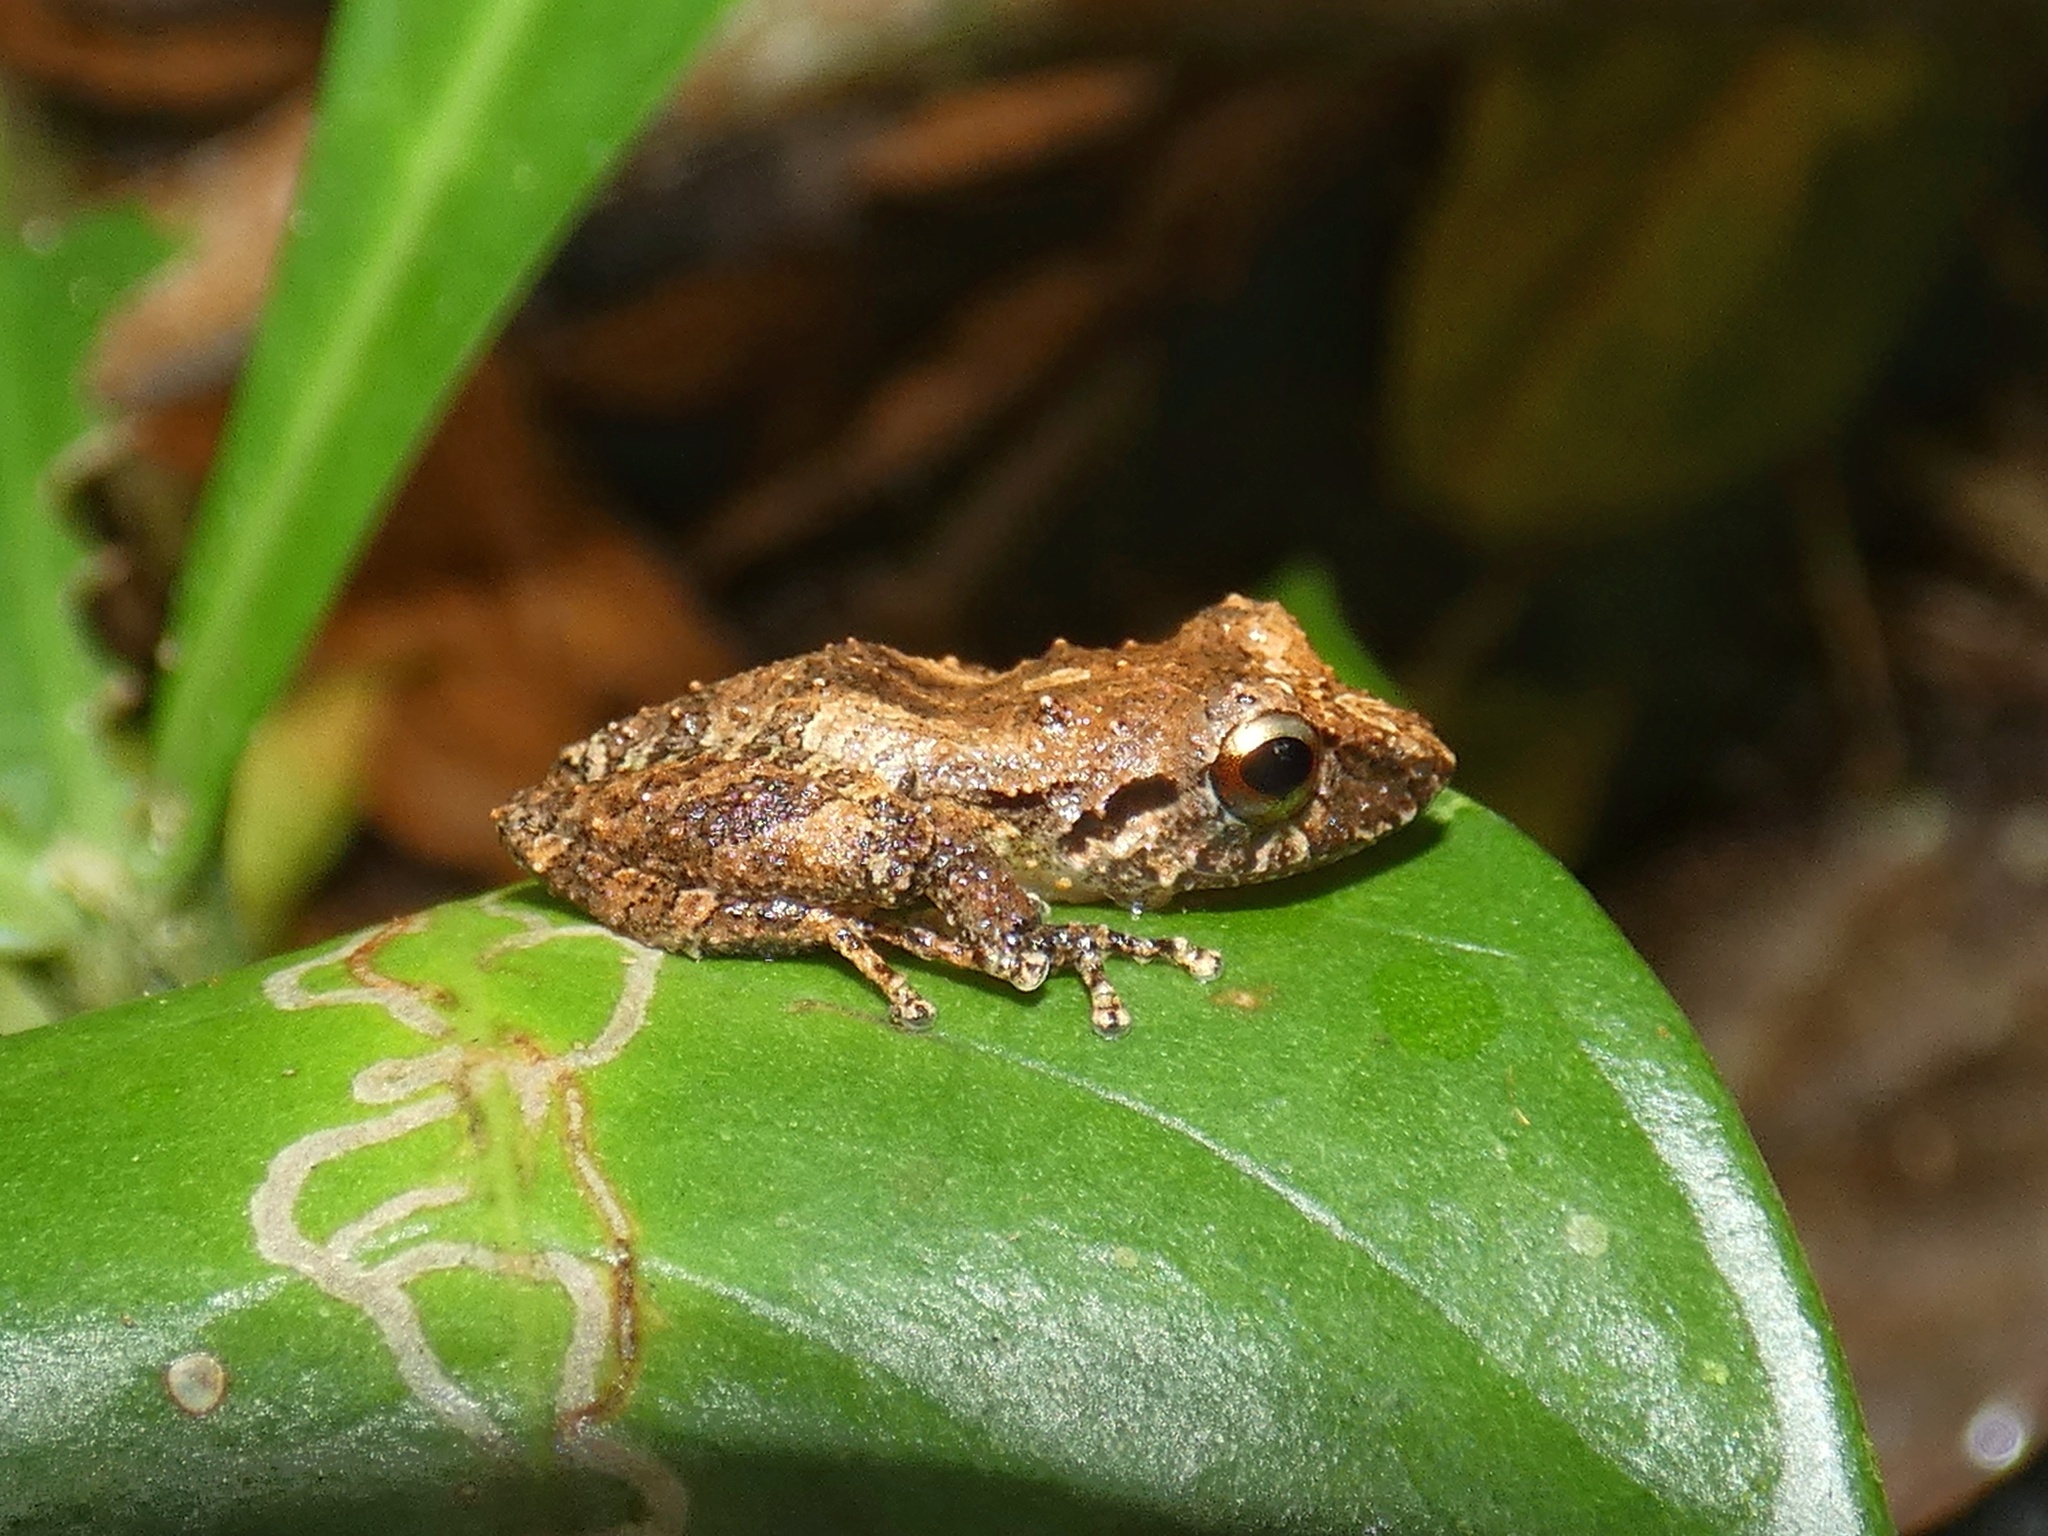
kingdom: Animalia
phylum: Chordata
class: Amphibia
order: Anura
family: Craugastoridae
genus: Pristimantis
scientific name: Pristimantis ridens
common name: Rio san juan robber frog
